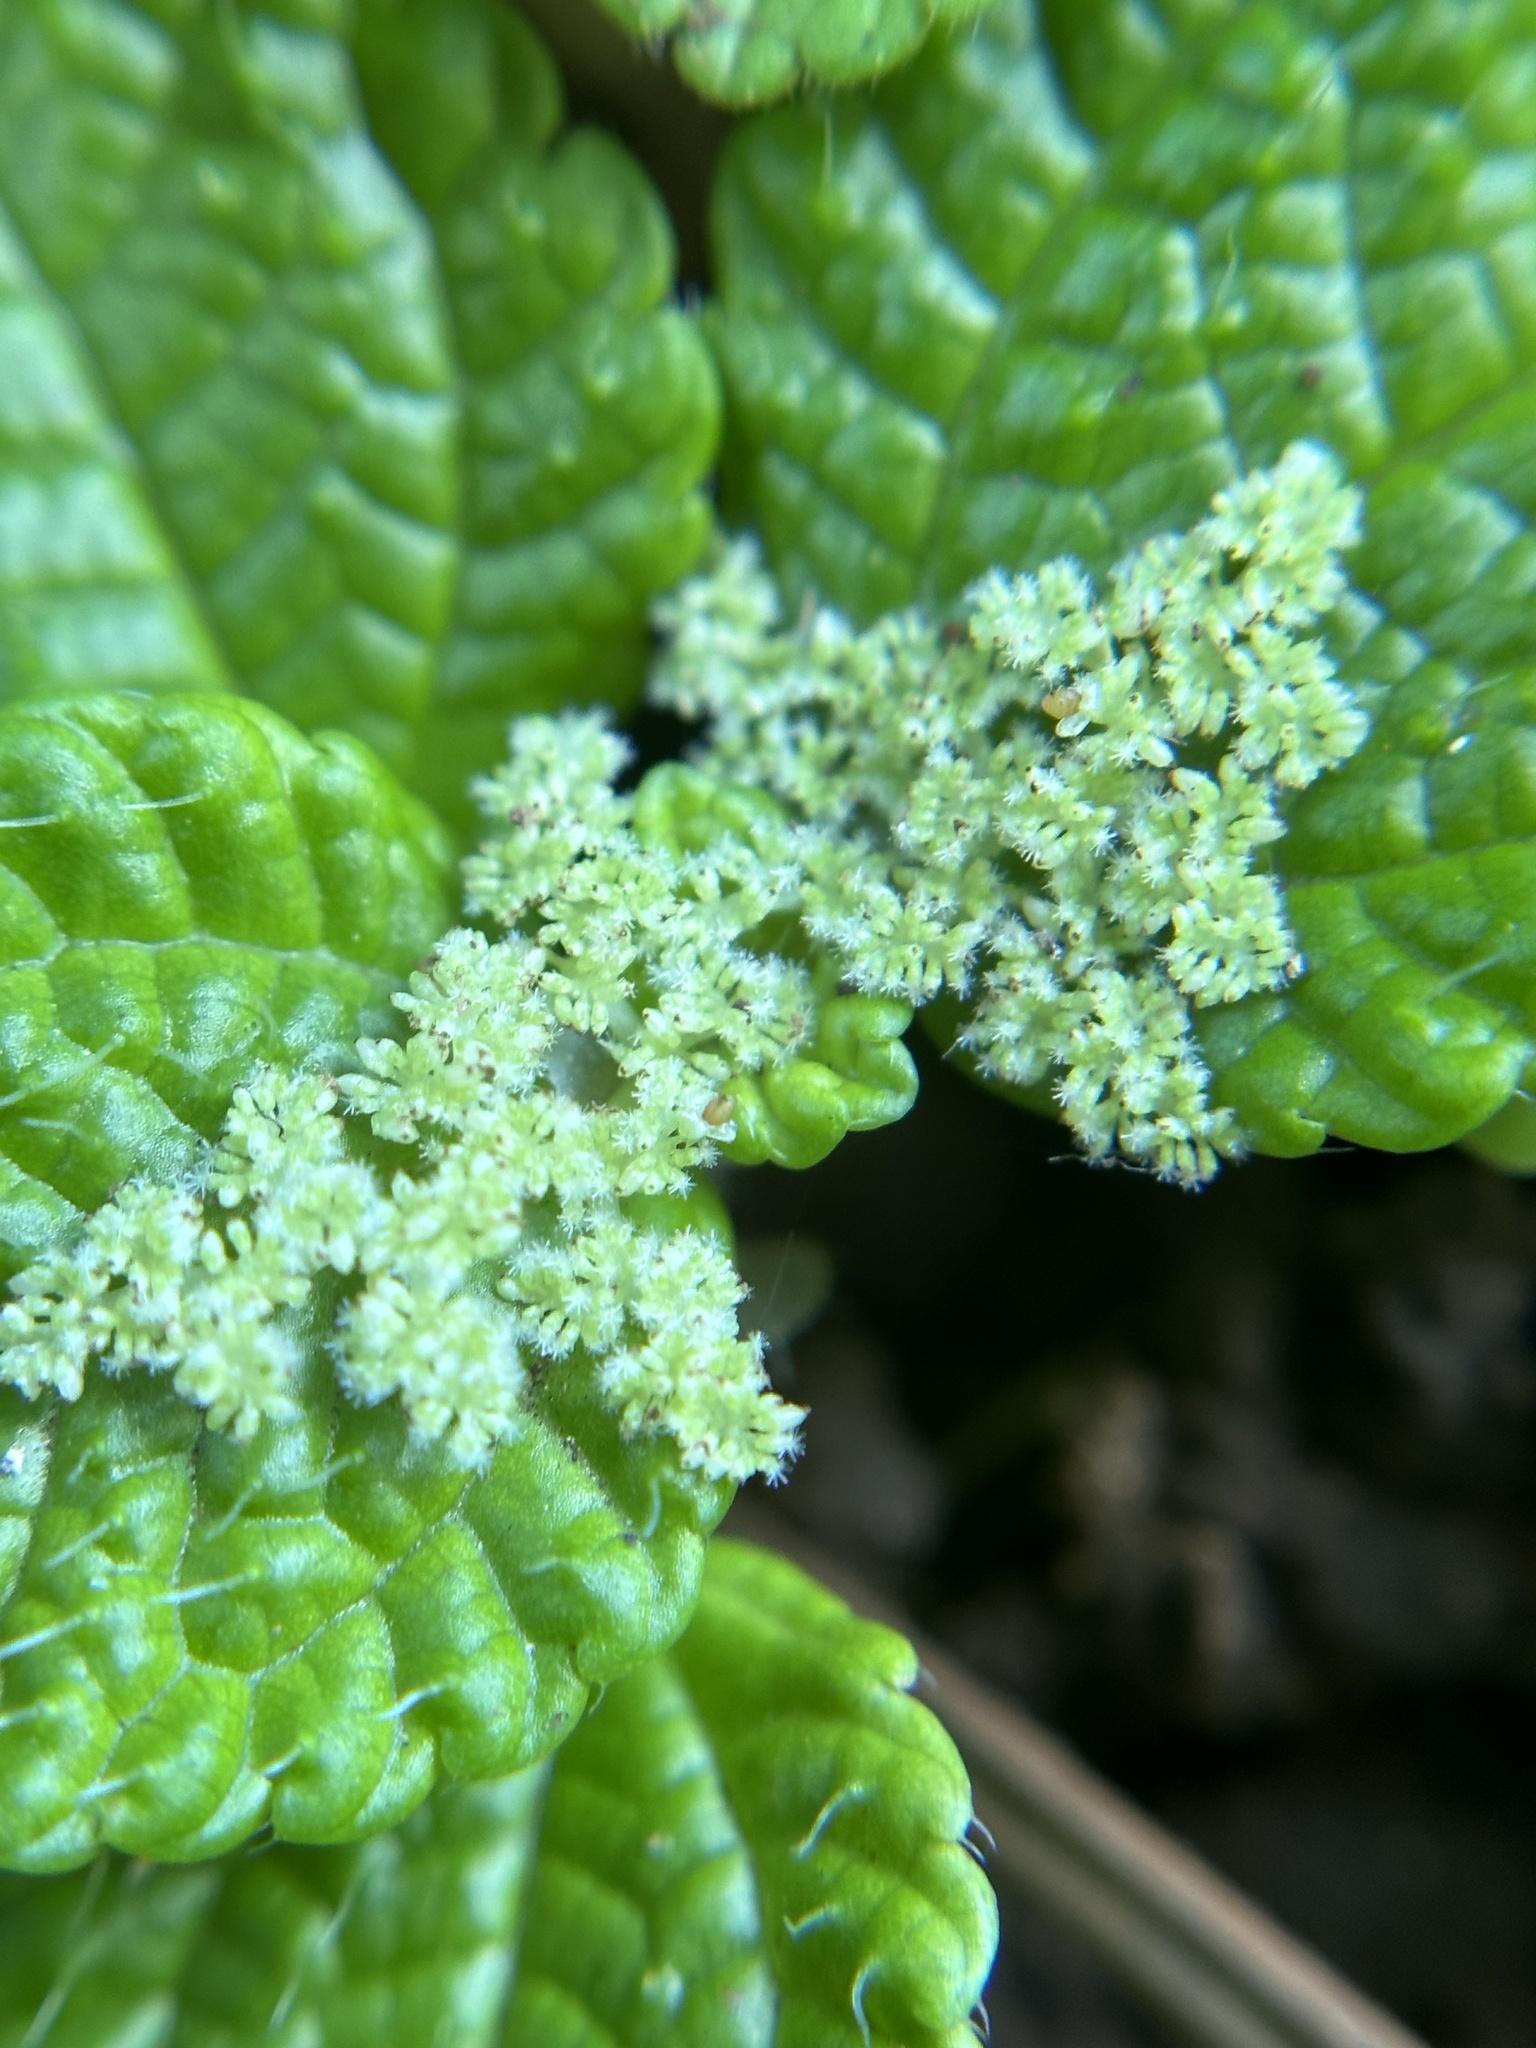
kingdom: Plantae
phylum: Tracheophyta
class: Magnoliopsida
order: Rosales
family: Urticaceae
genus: Pilea
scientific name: Pilea nummulariifolia
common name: Creeping-charlie
